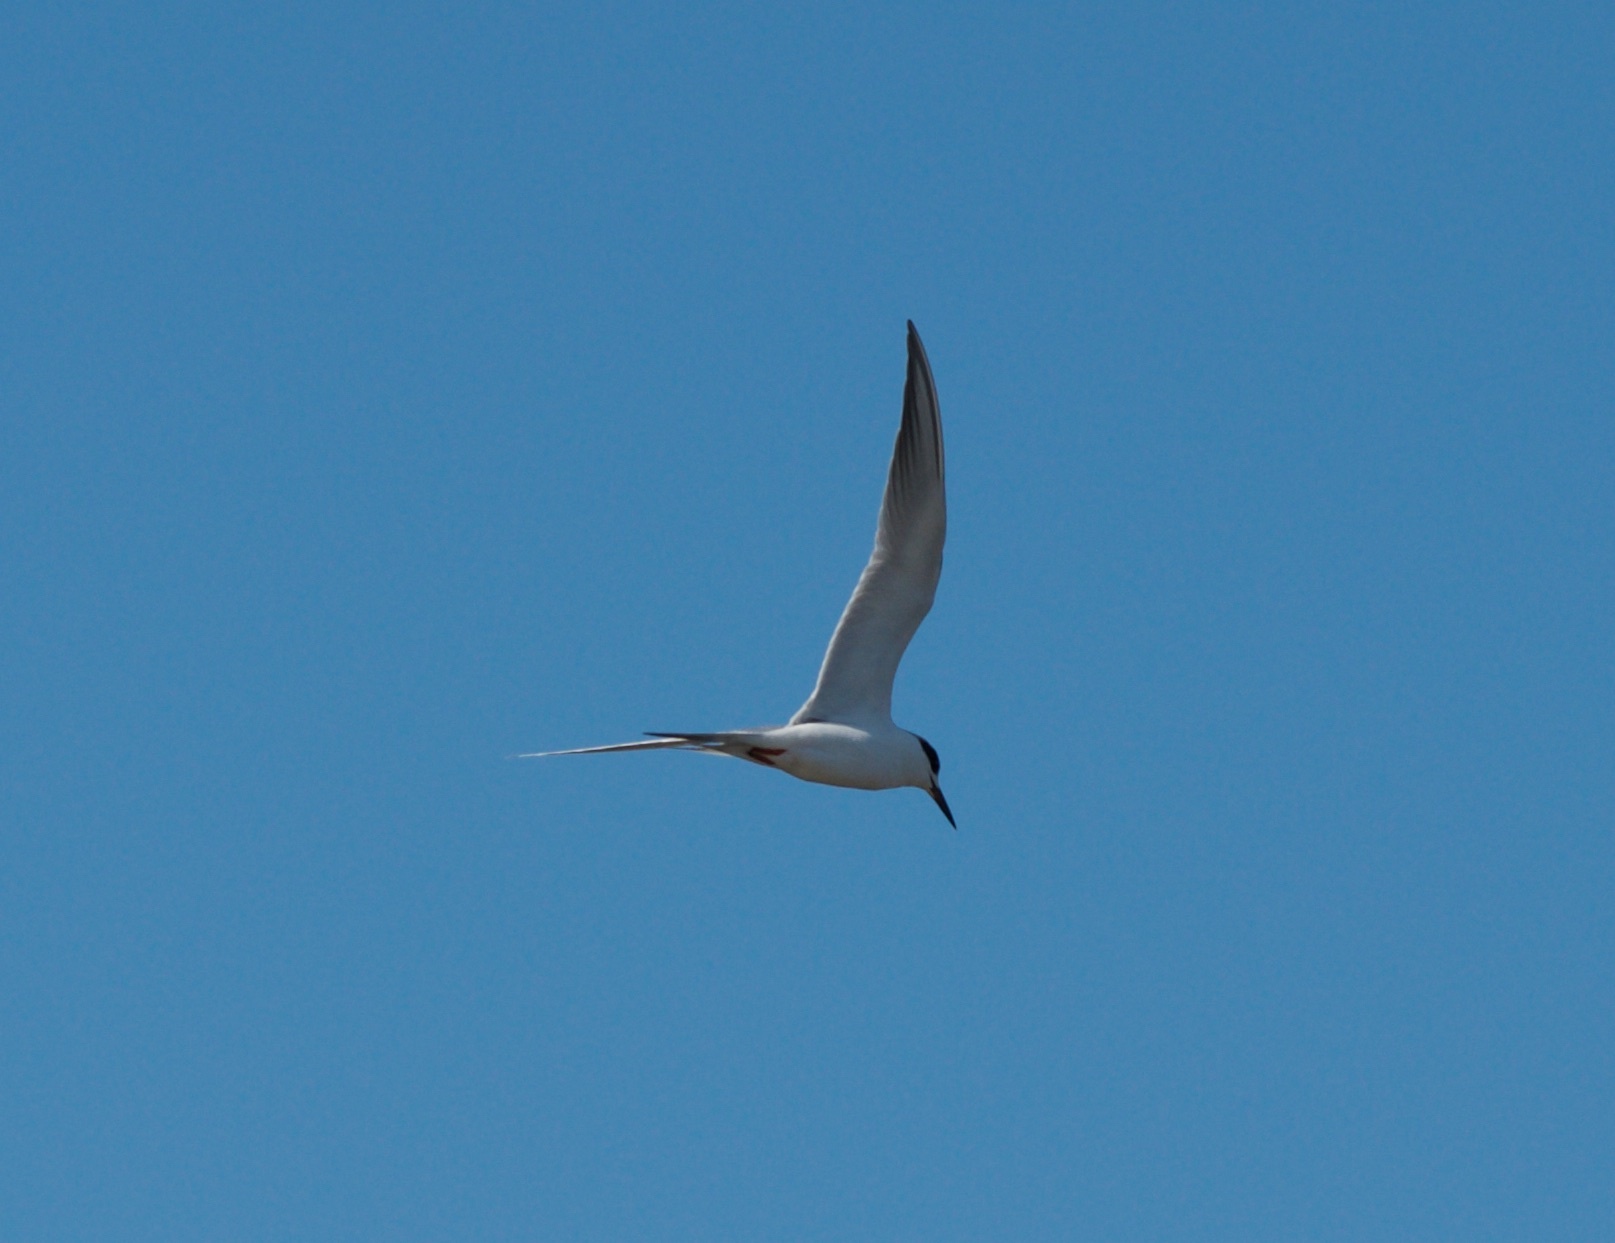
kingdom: Animalia
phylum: Chordata
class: Aves
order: Charadriiformes
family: Laridae
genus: Sterna
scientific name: Sterna forsteri
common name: Forster's tern
